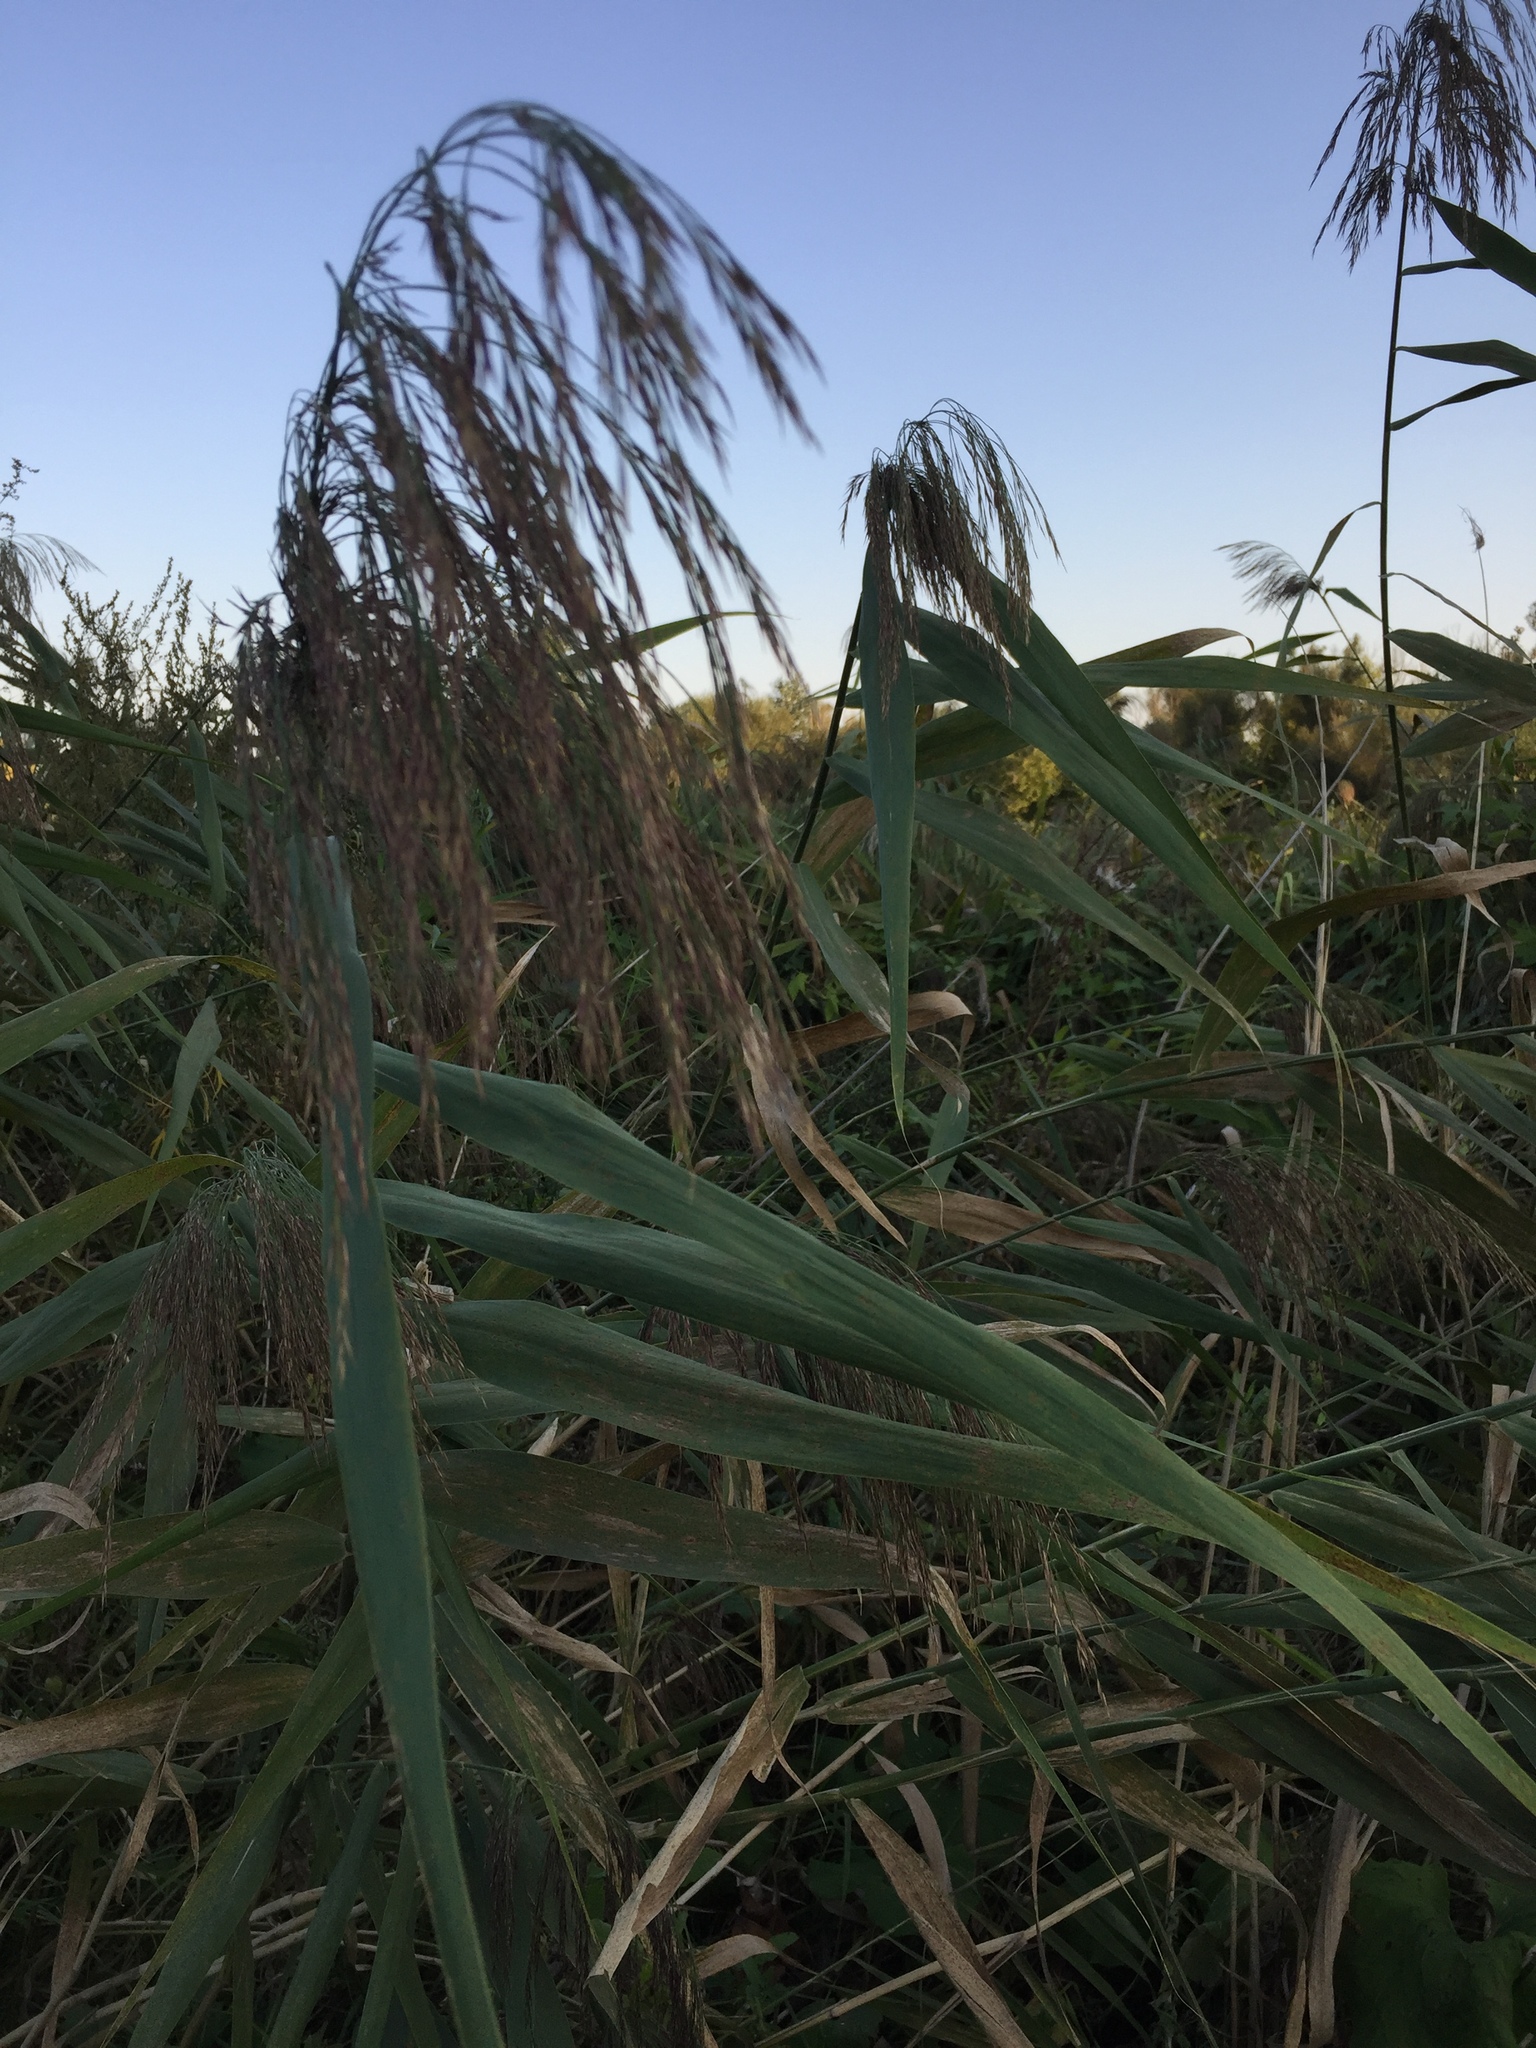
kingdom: Plantae
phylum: Tracheophyta
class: Liliopsida
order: Poales
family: Poaceae
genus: Phragmites
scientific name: Phragmites australis
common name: Common reed
